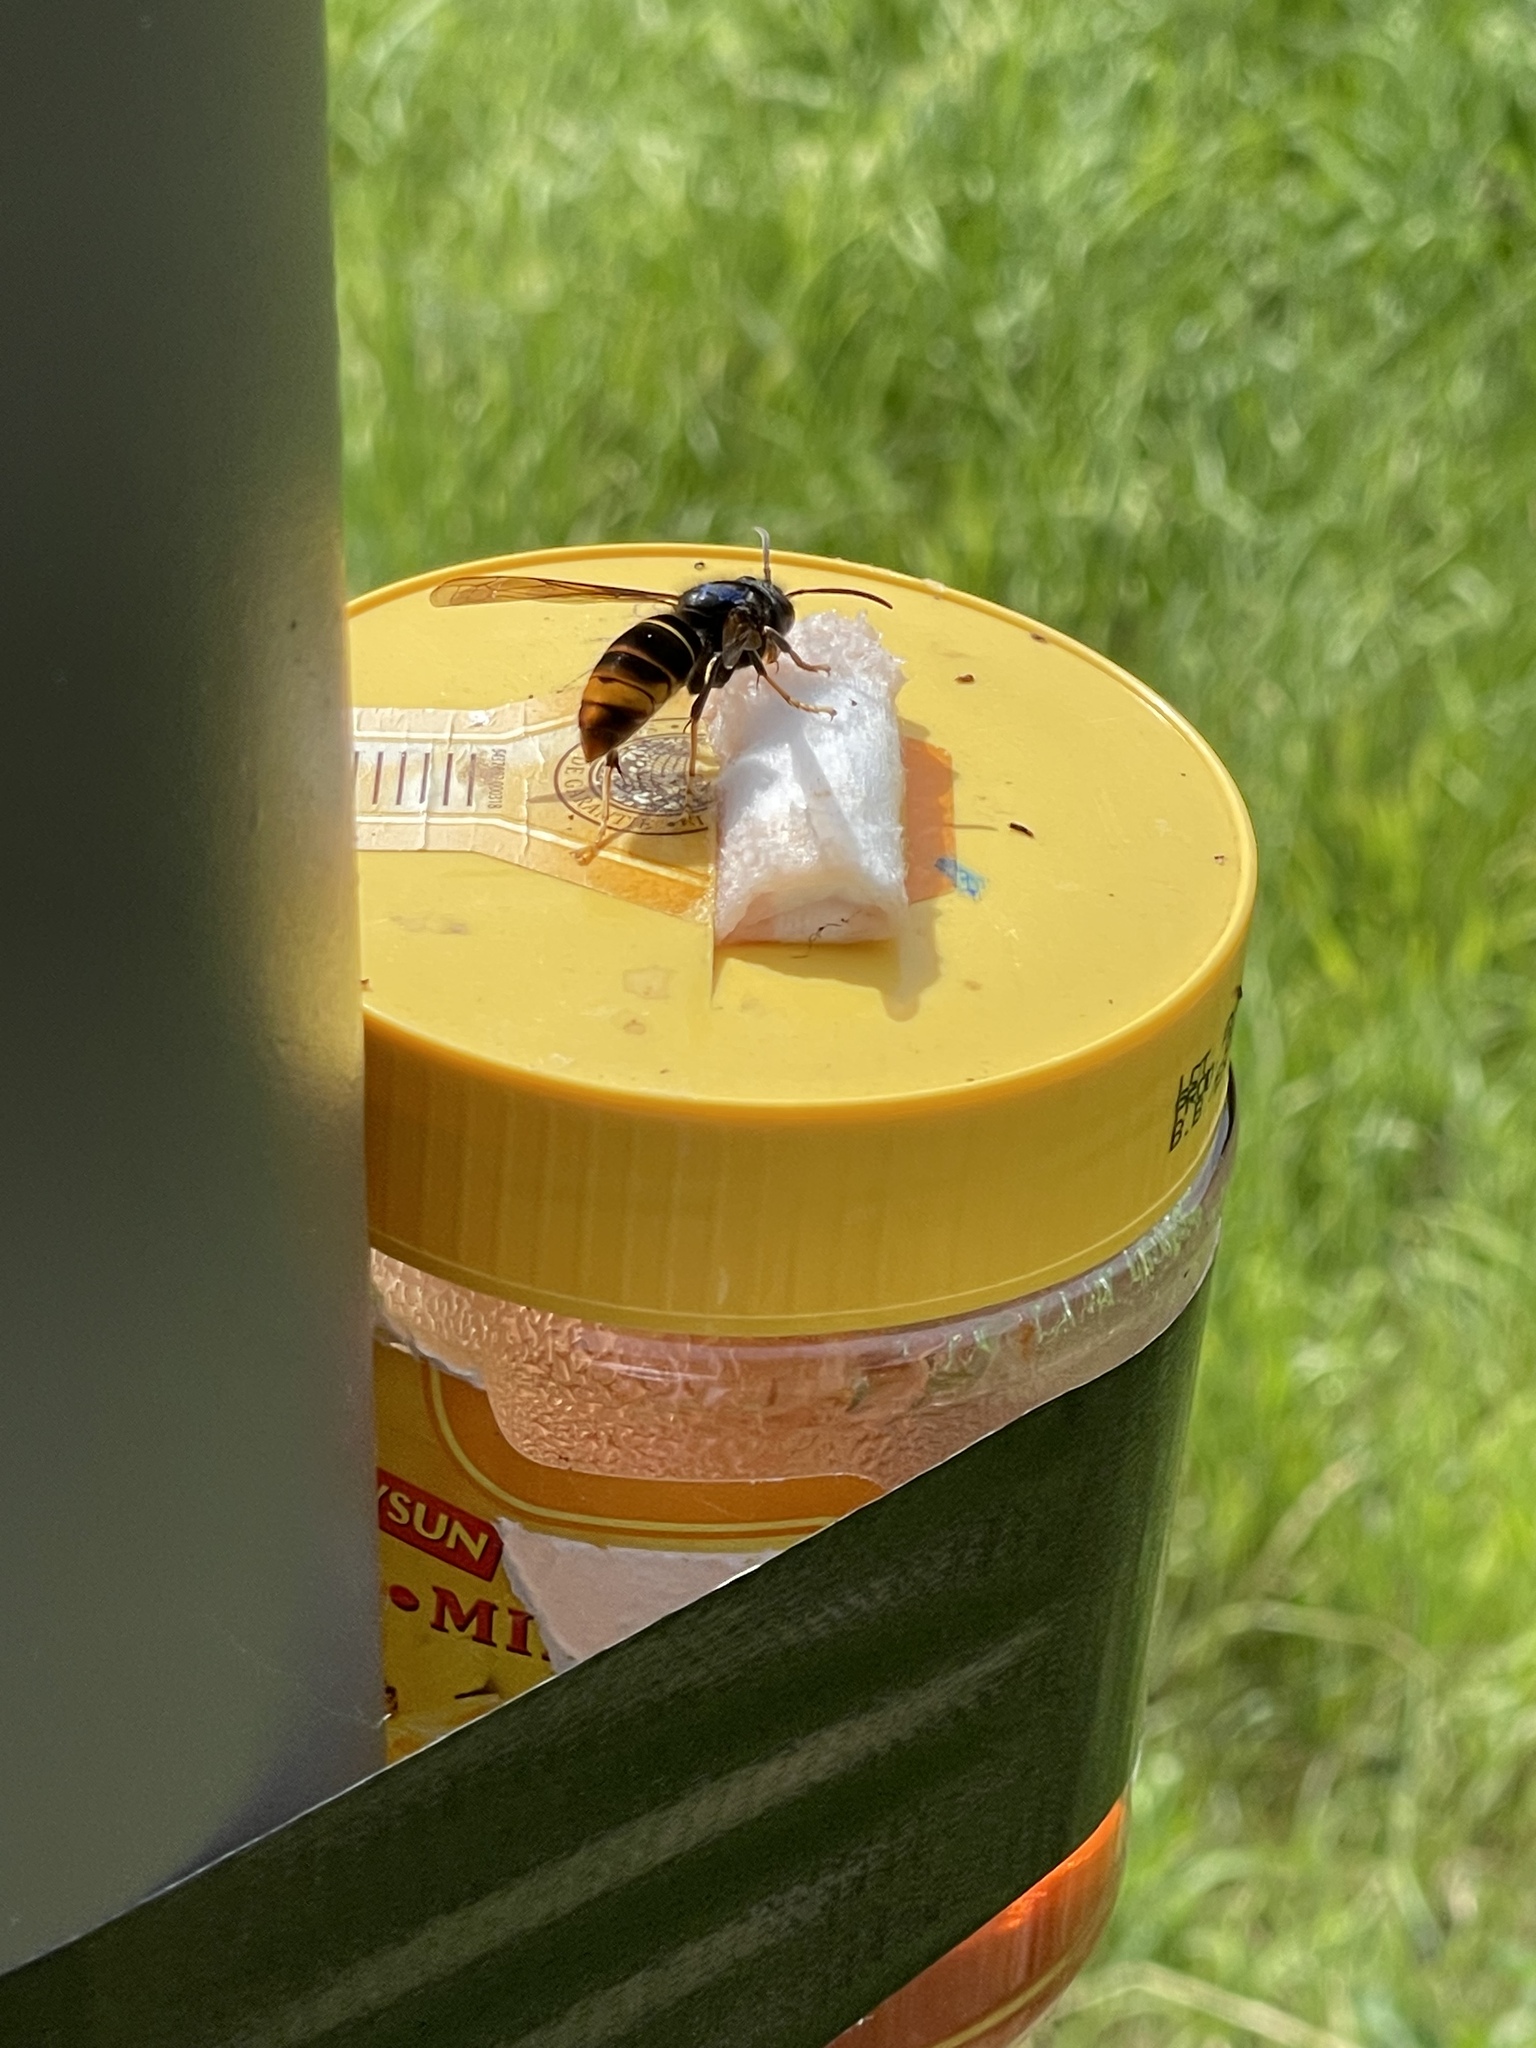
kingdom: Animalia
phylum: Arthropoda
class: Insecta
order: Hymenoptera
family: Vespidae
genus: Vespa
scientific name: Vespa velutina
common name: Asian hornet
